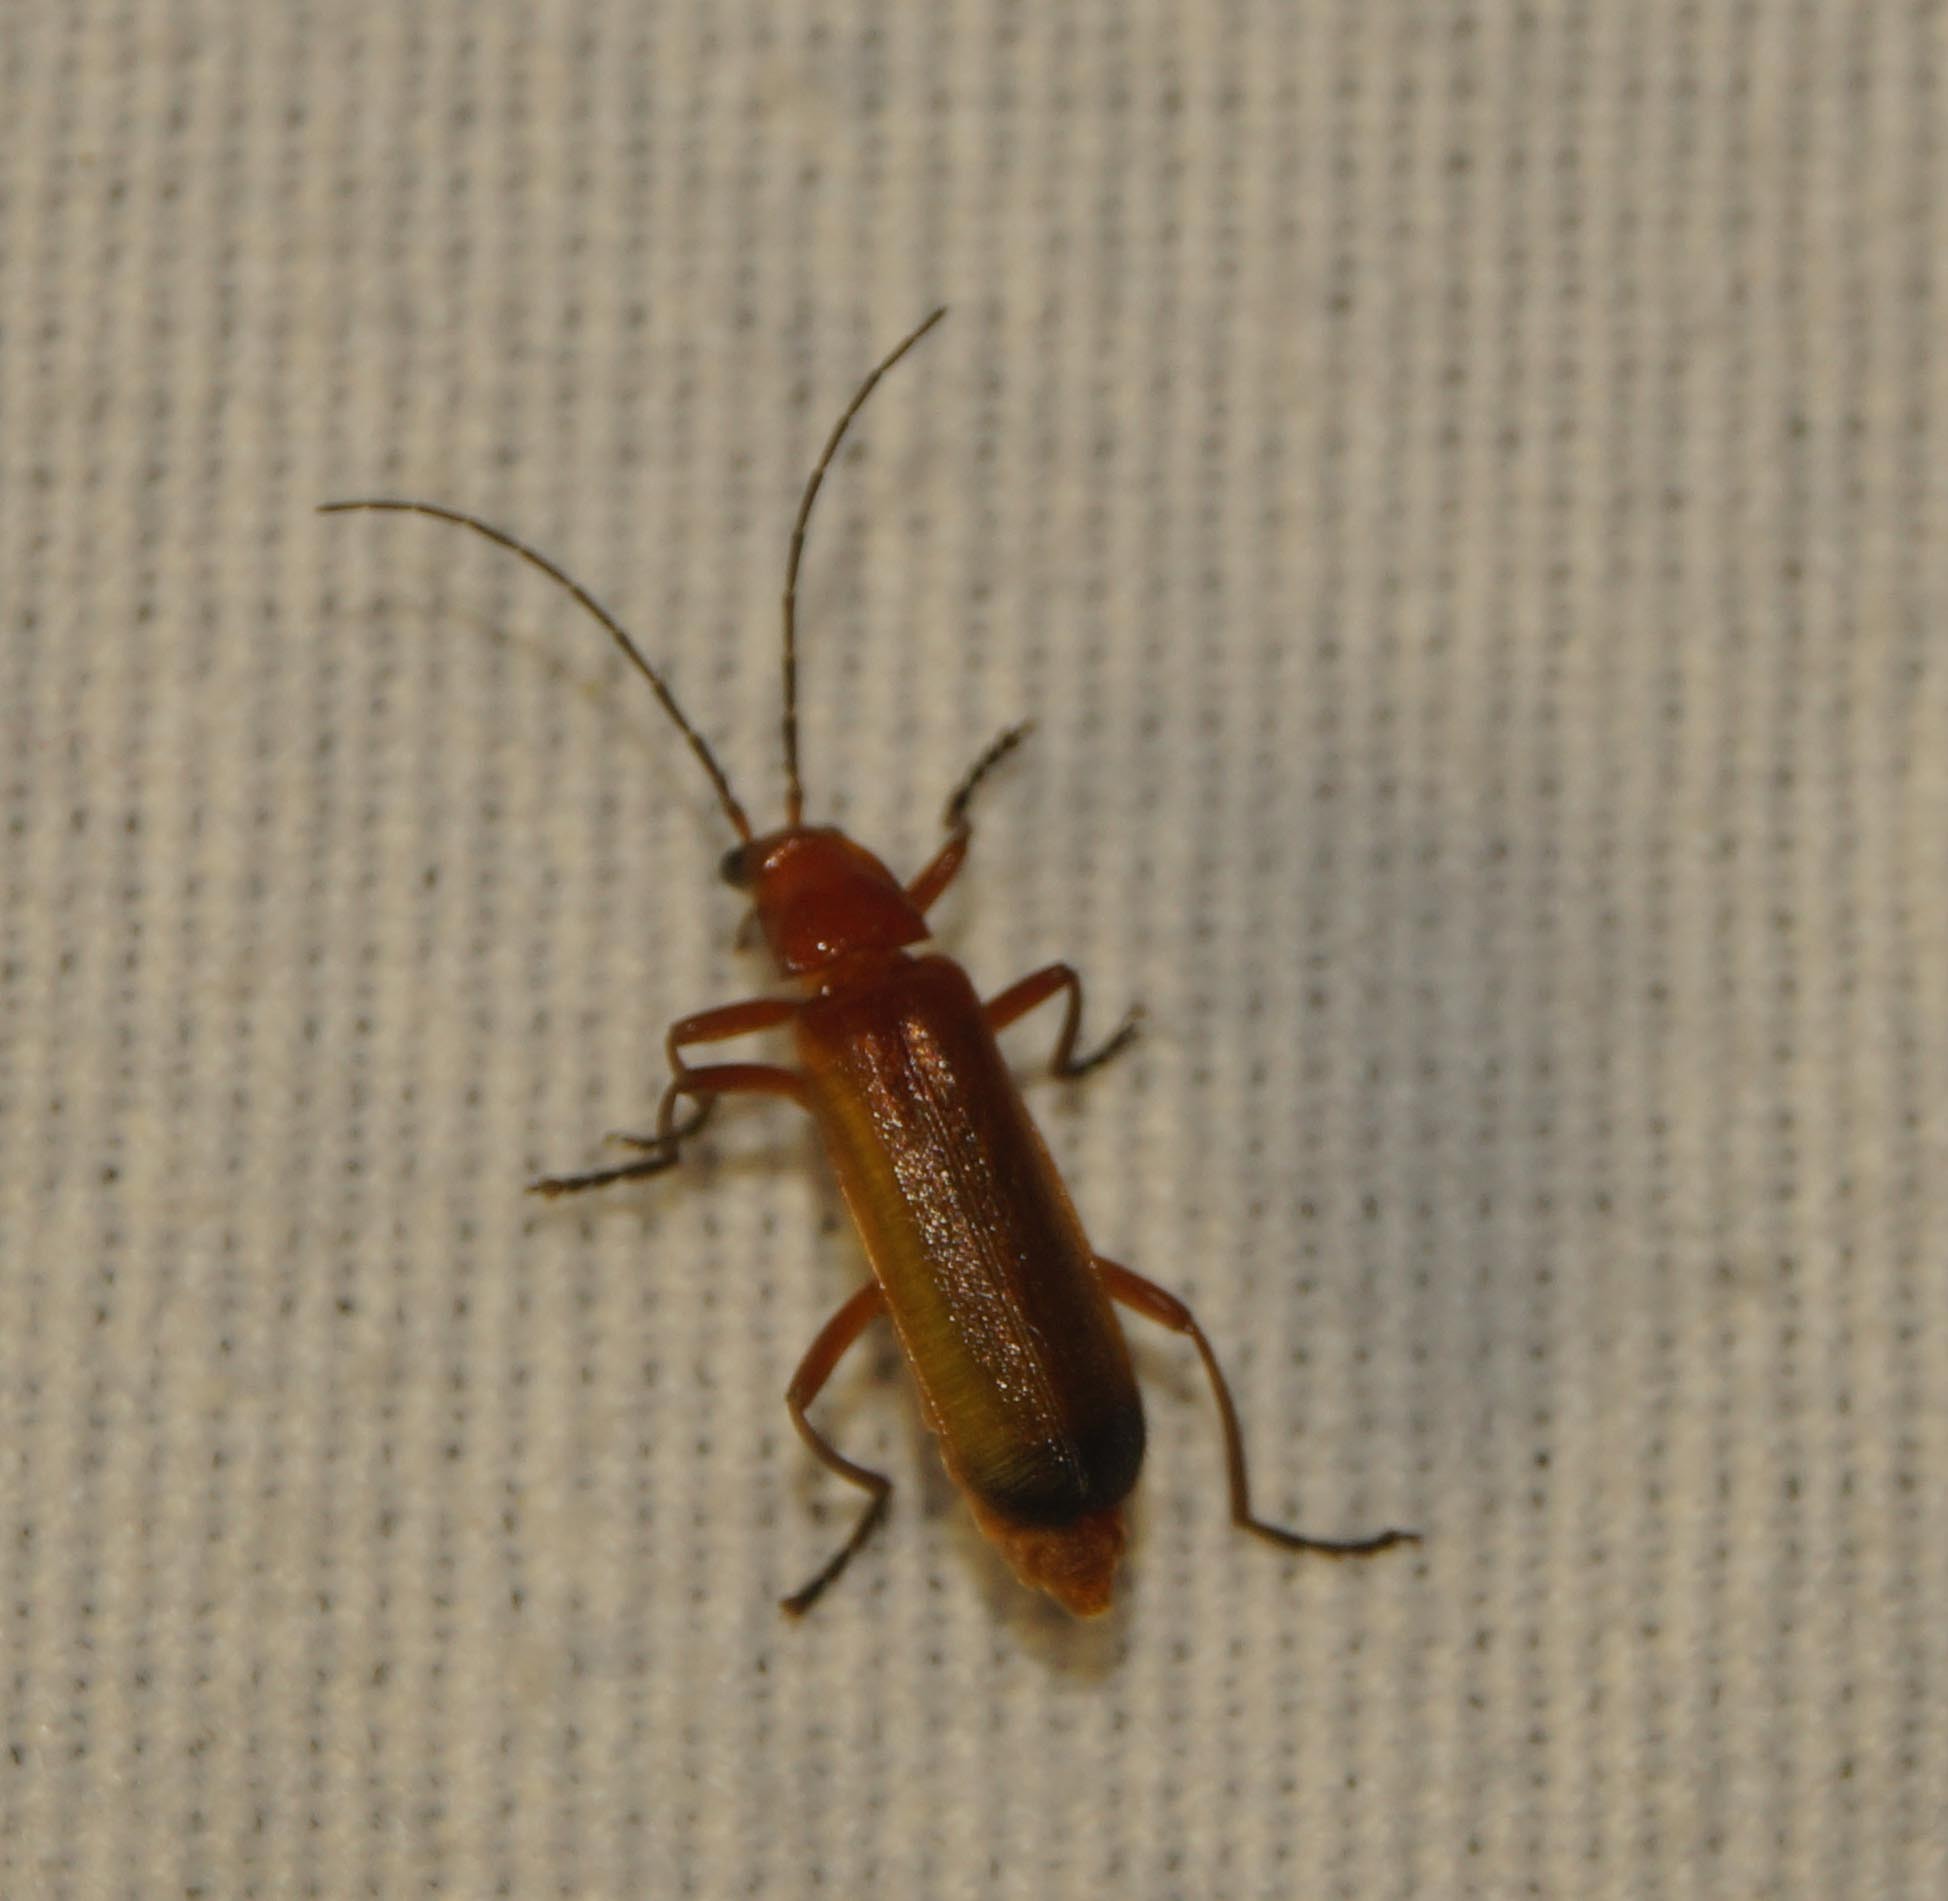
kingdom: Animalia
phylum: Arthropoda
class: Insecta
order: Coleoptera
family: Cantharidae
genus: Rhagonycha
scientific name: Rhagonycha fulva
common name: Common red soldier beetle
